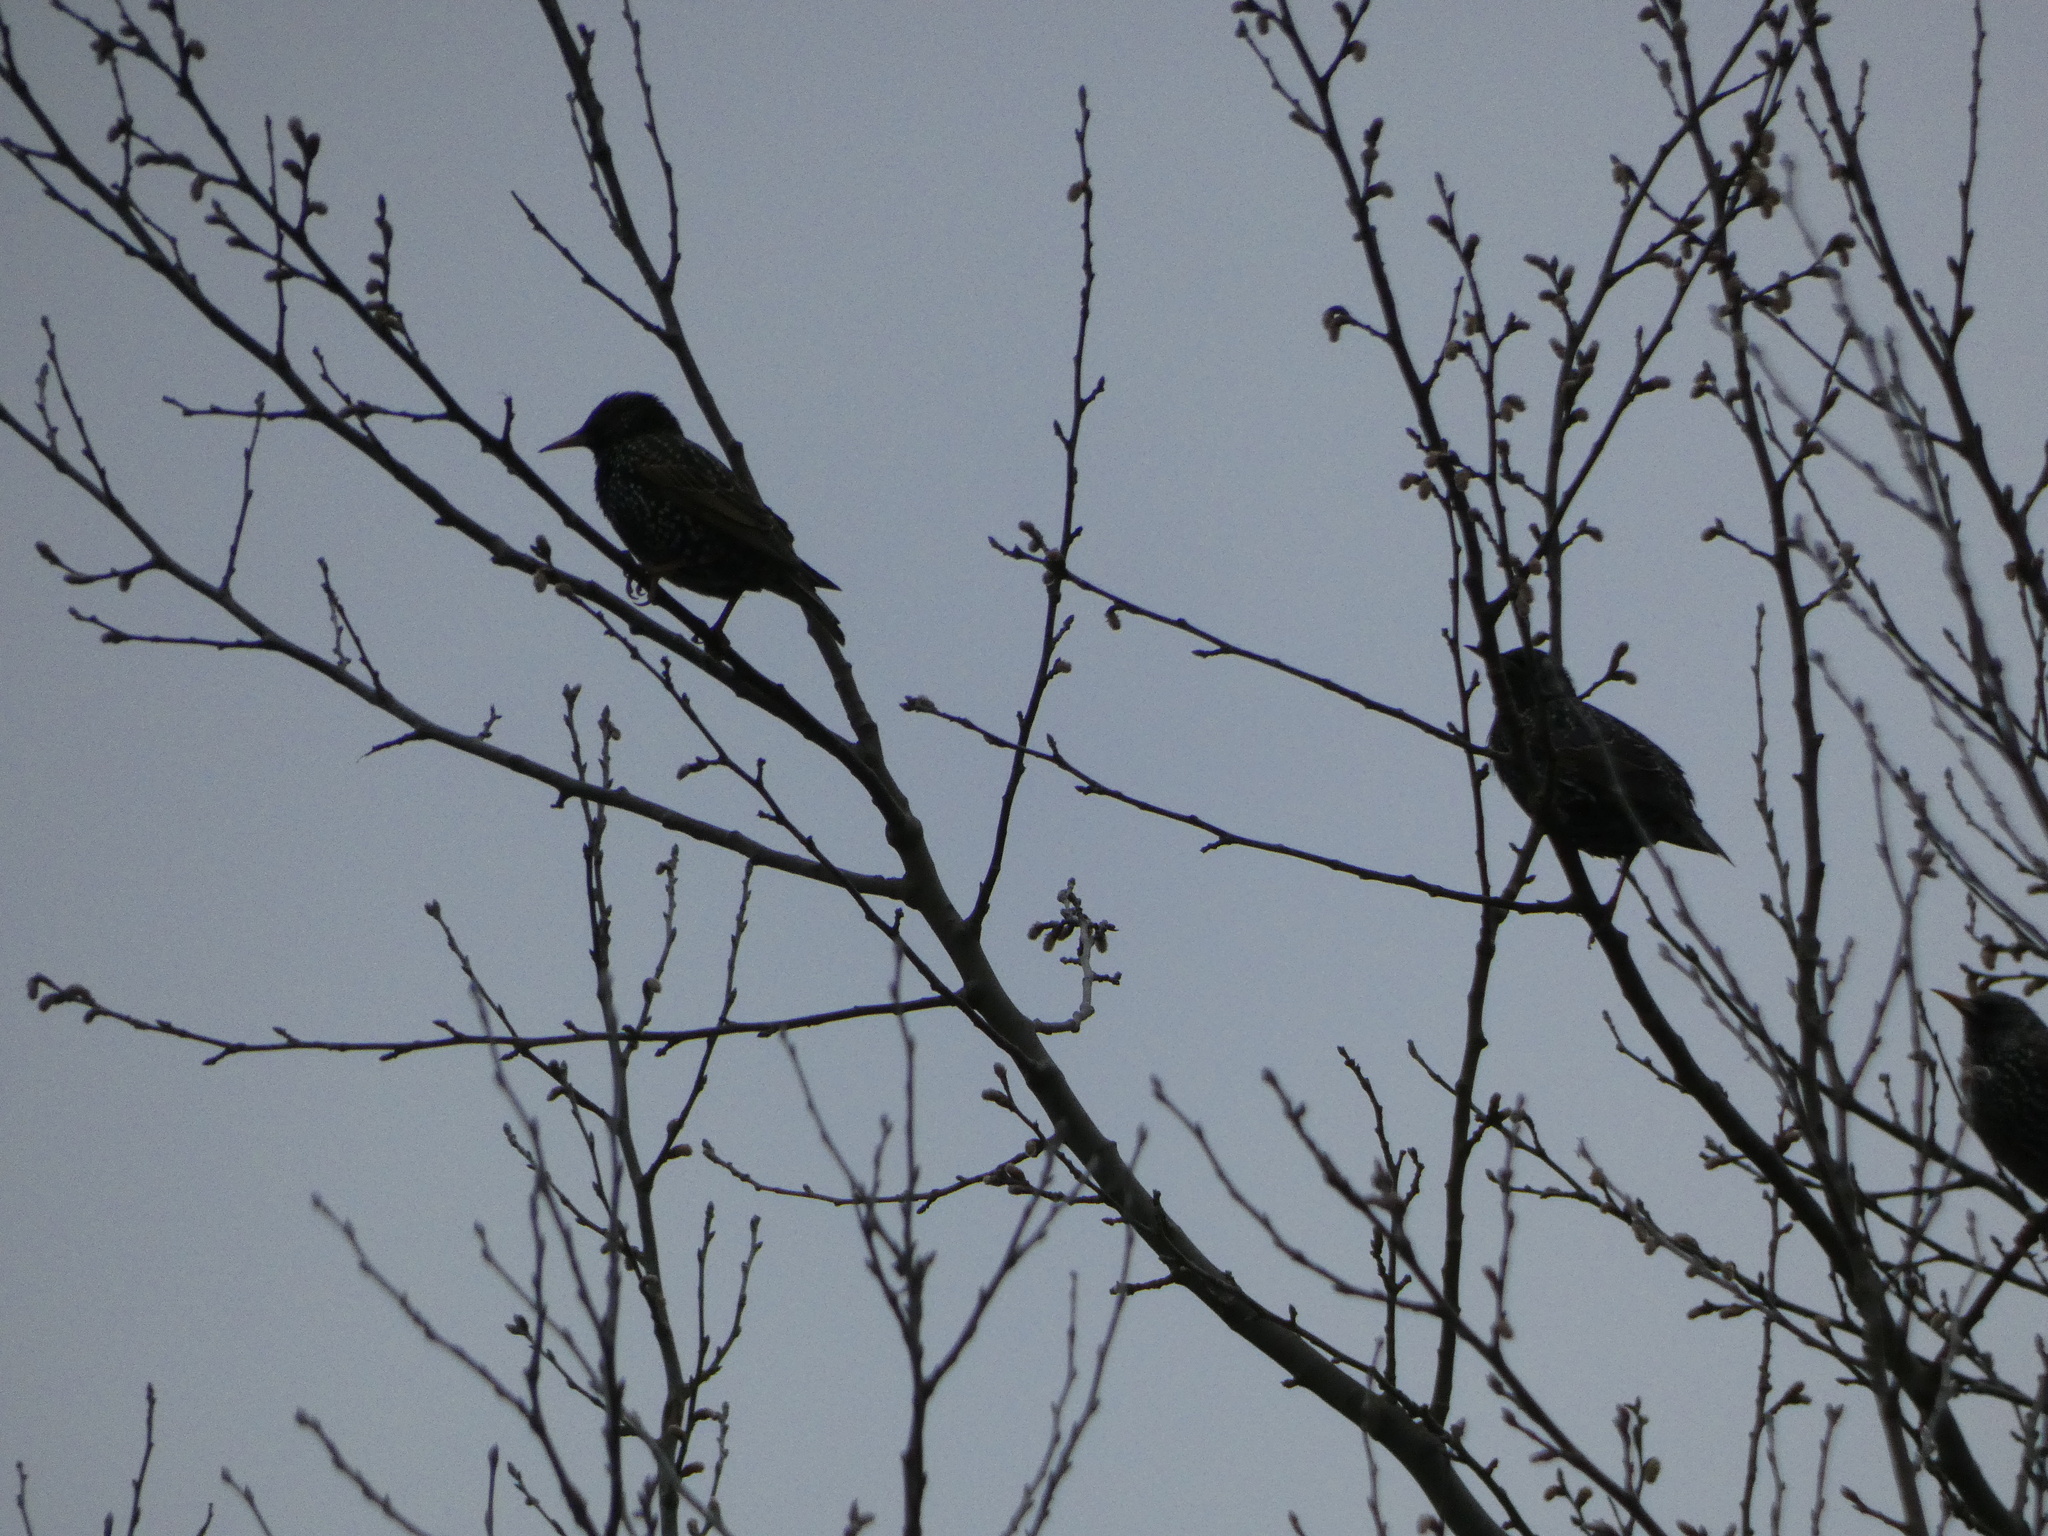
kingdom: Animalia
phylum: Chordata
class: Aves
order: Passeriformes
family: Sturnidae
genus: Sturnus
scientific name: Sturnus vulgaris
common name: Common starling
